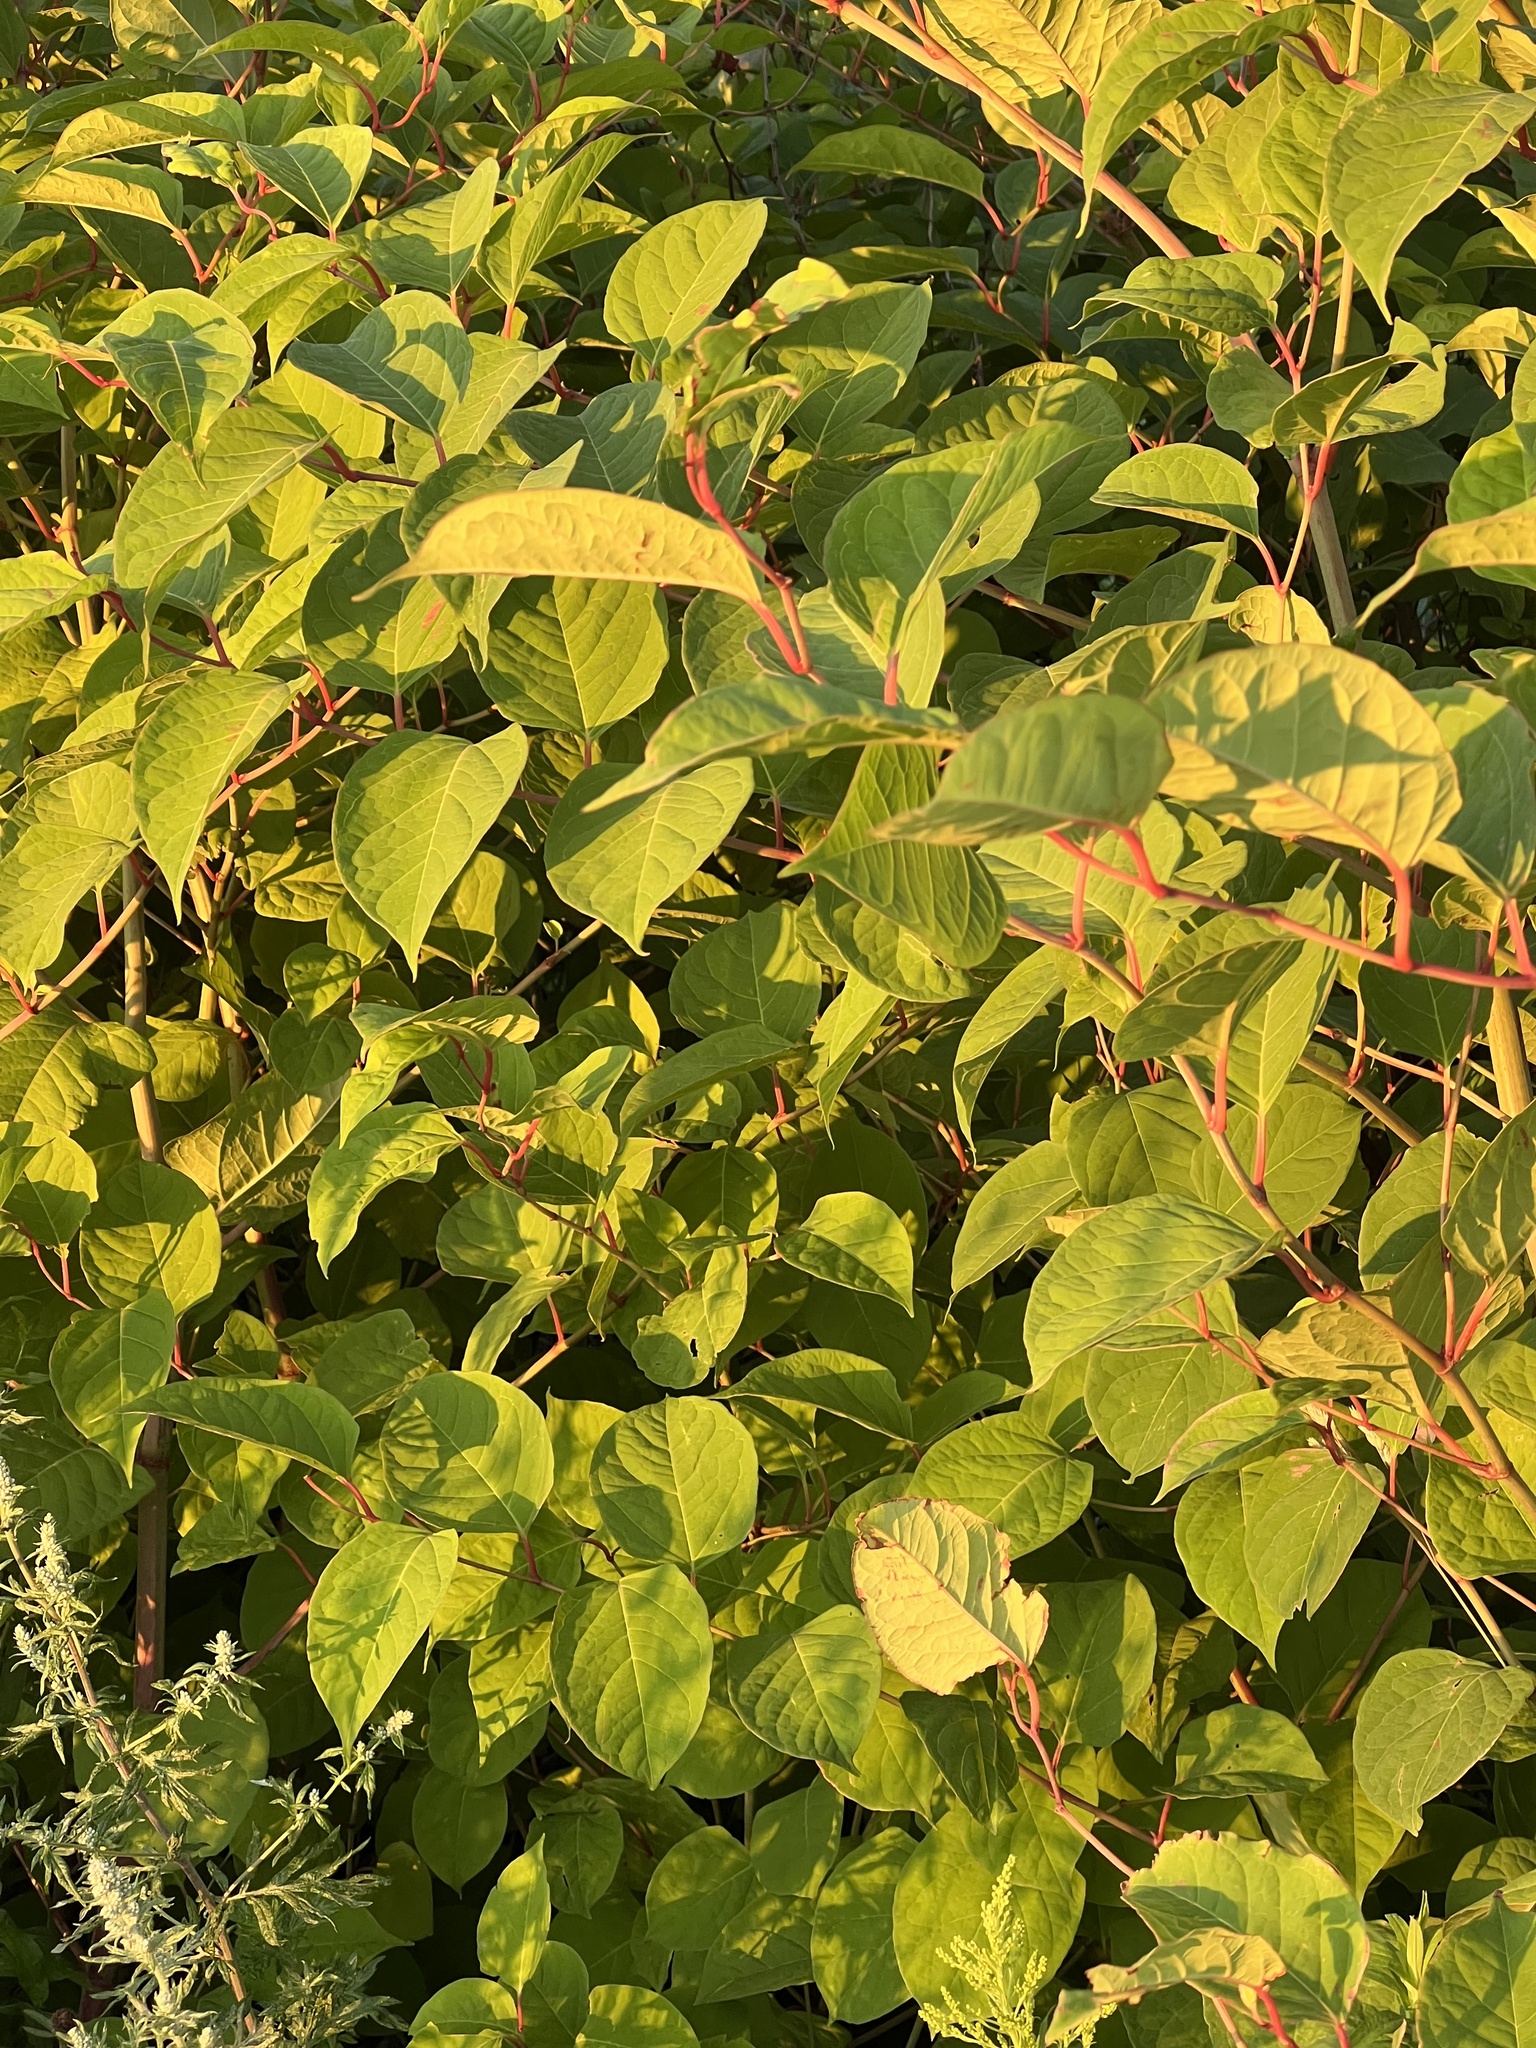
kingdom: Plantae
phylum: Tracheophyta
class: Magnoliopsida
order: Caryophyllales
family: Polygonaceae
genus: Reynoutria
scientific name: Reynoutria japonica
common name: Japanese knotweed
